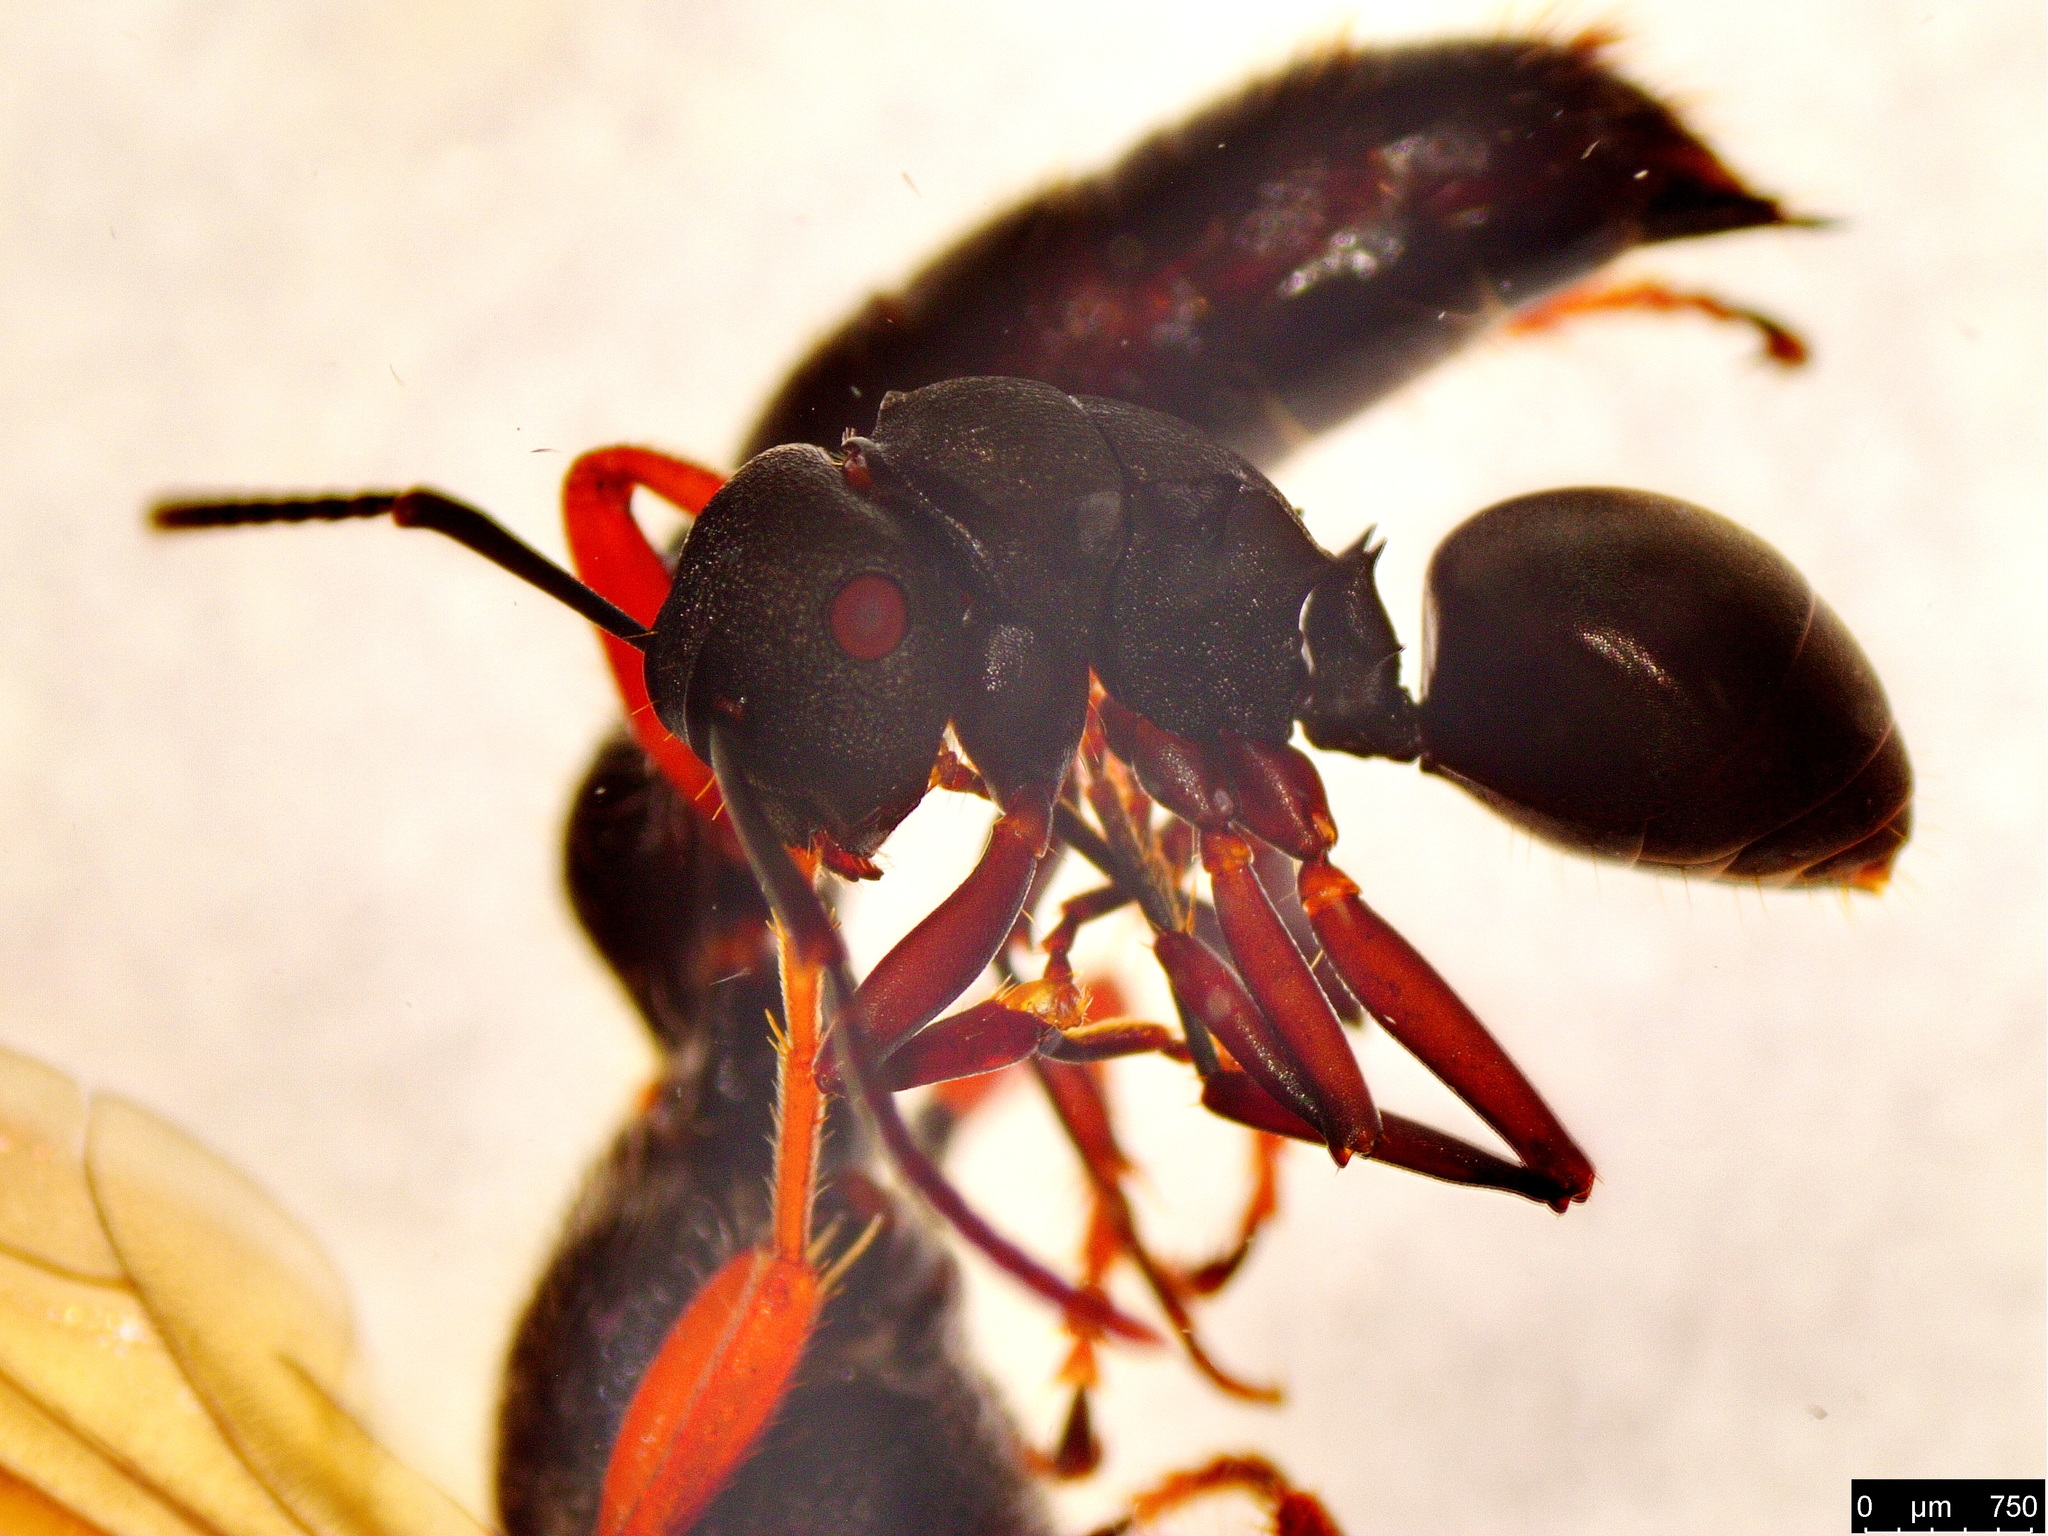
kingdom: Animalia
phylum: Arthropoda
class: Insecta
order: Hymenoptera
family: Formicidae
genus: Polyrhachis
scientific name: Polyrhachis phryne
